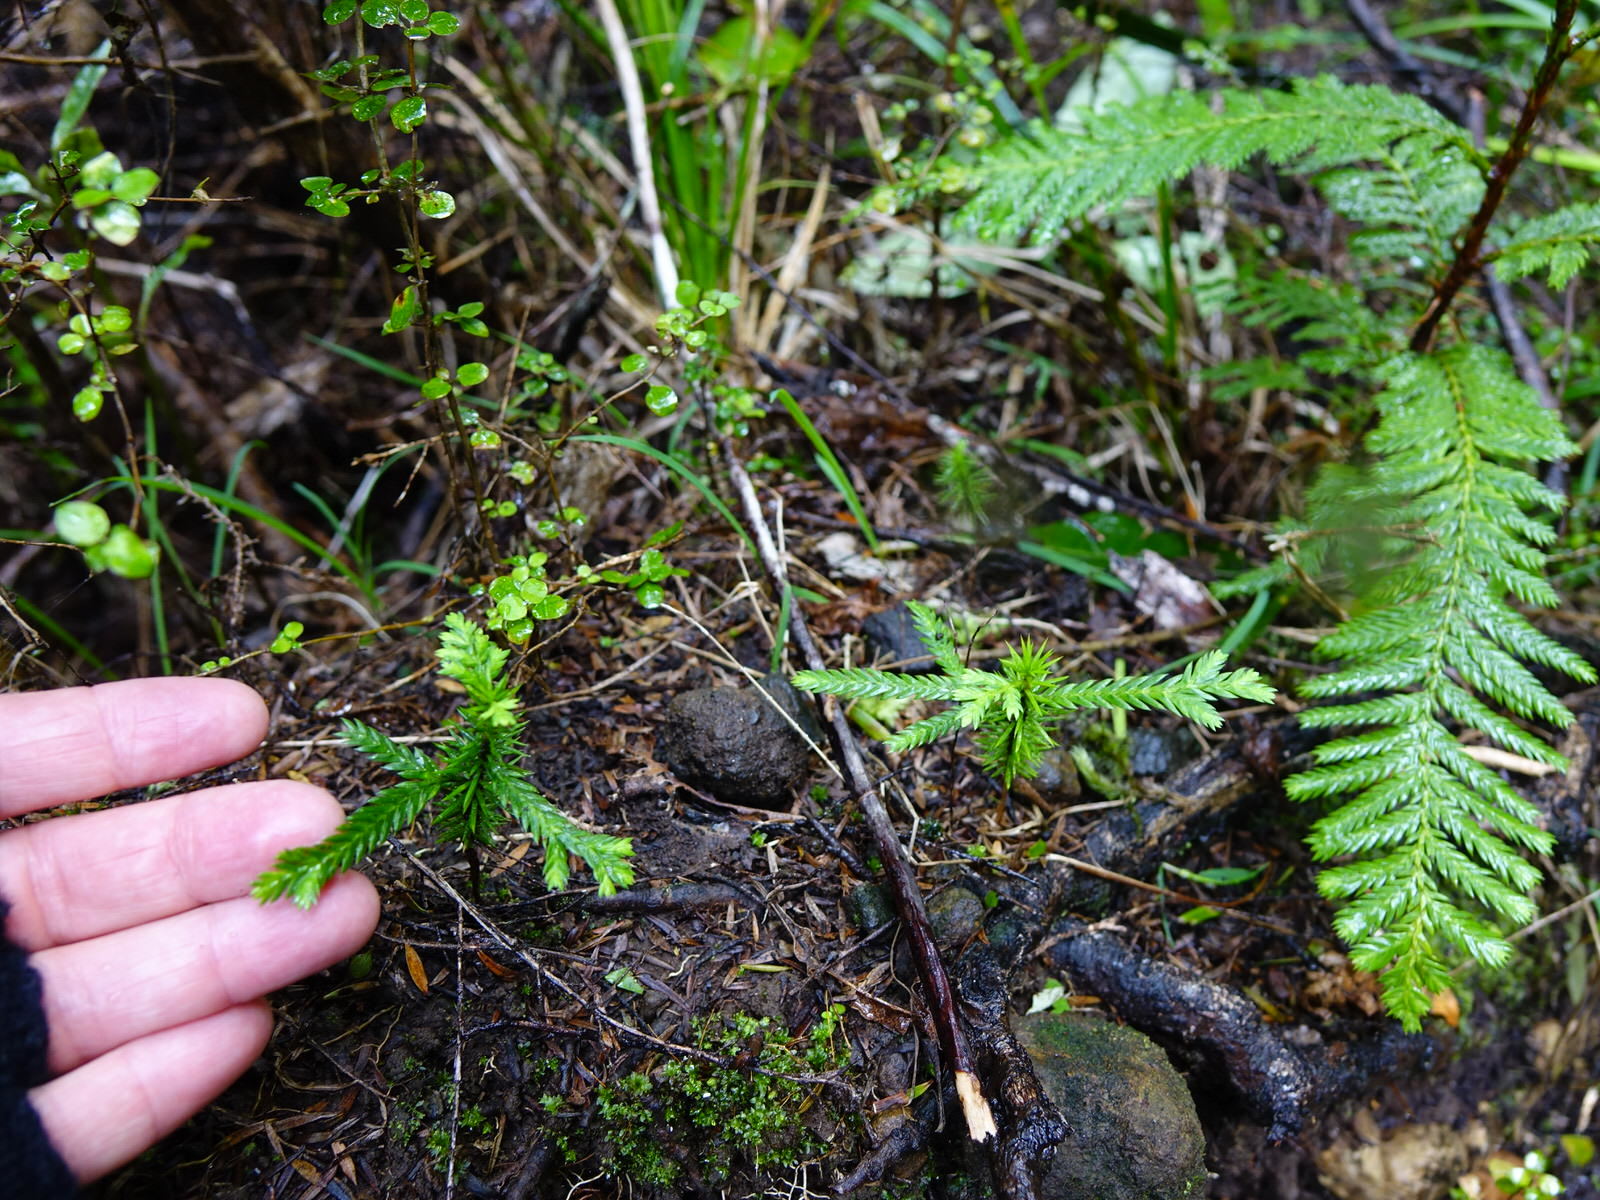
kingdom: Plantae
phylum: Tracheophyta
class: Pinopsida
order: Pinales
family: Cupressaceae
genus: Libocedrus
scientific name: Libocedrus plumosa
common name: New zealand cedar
